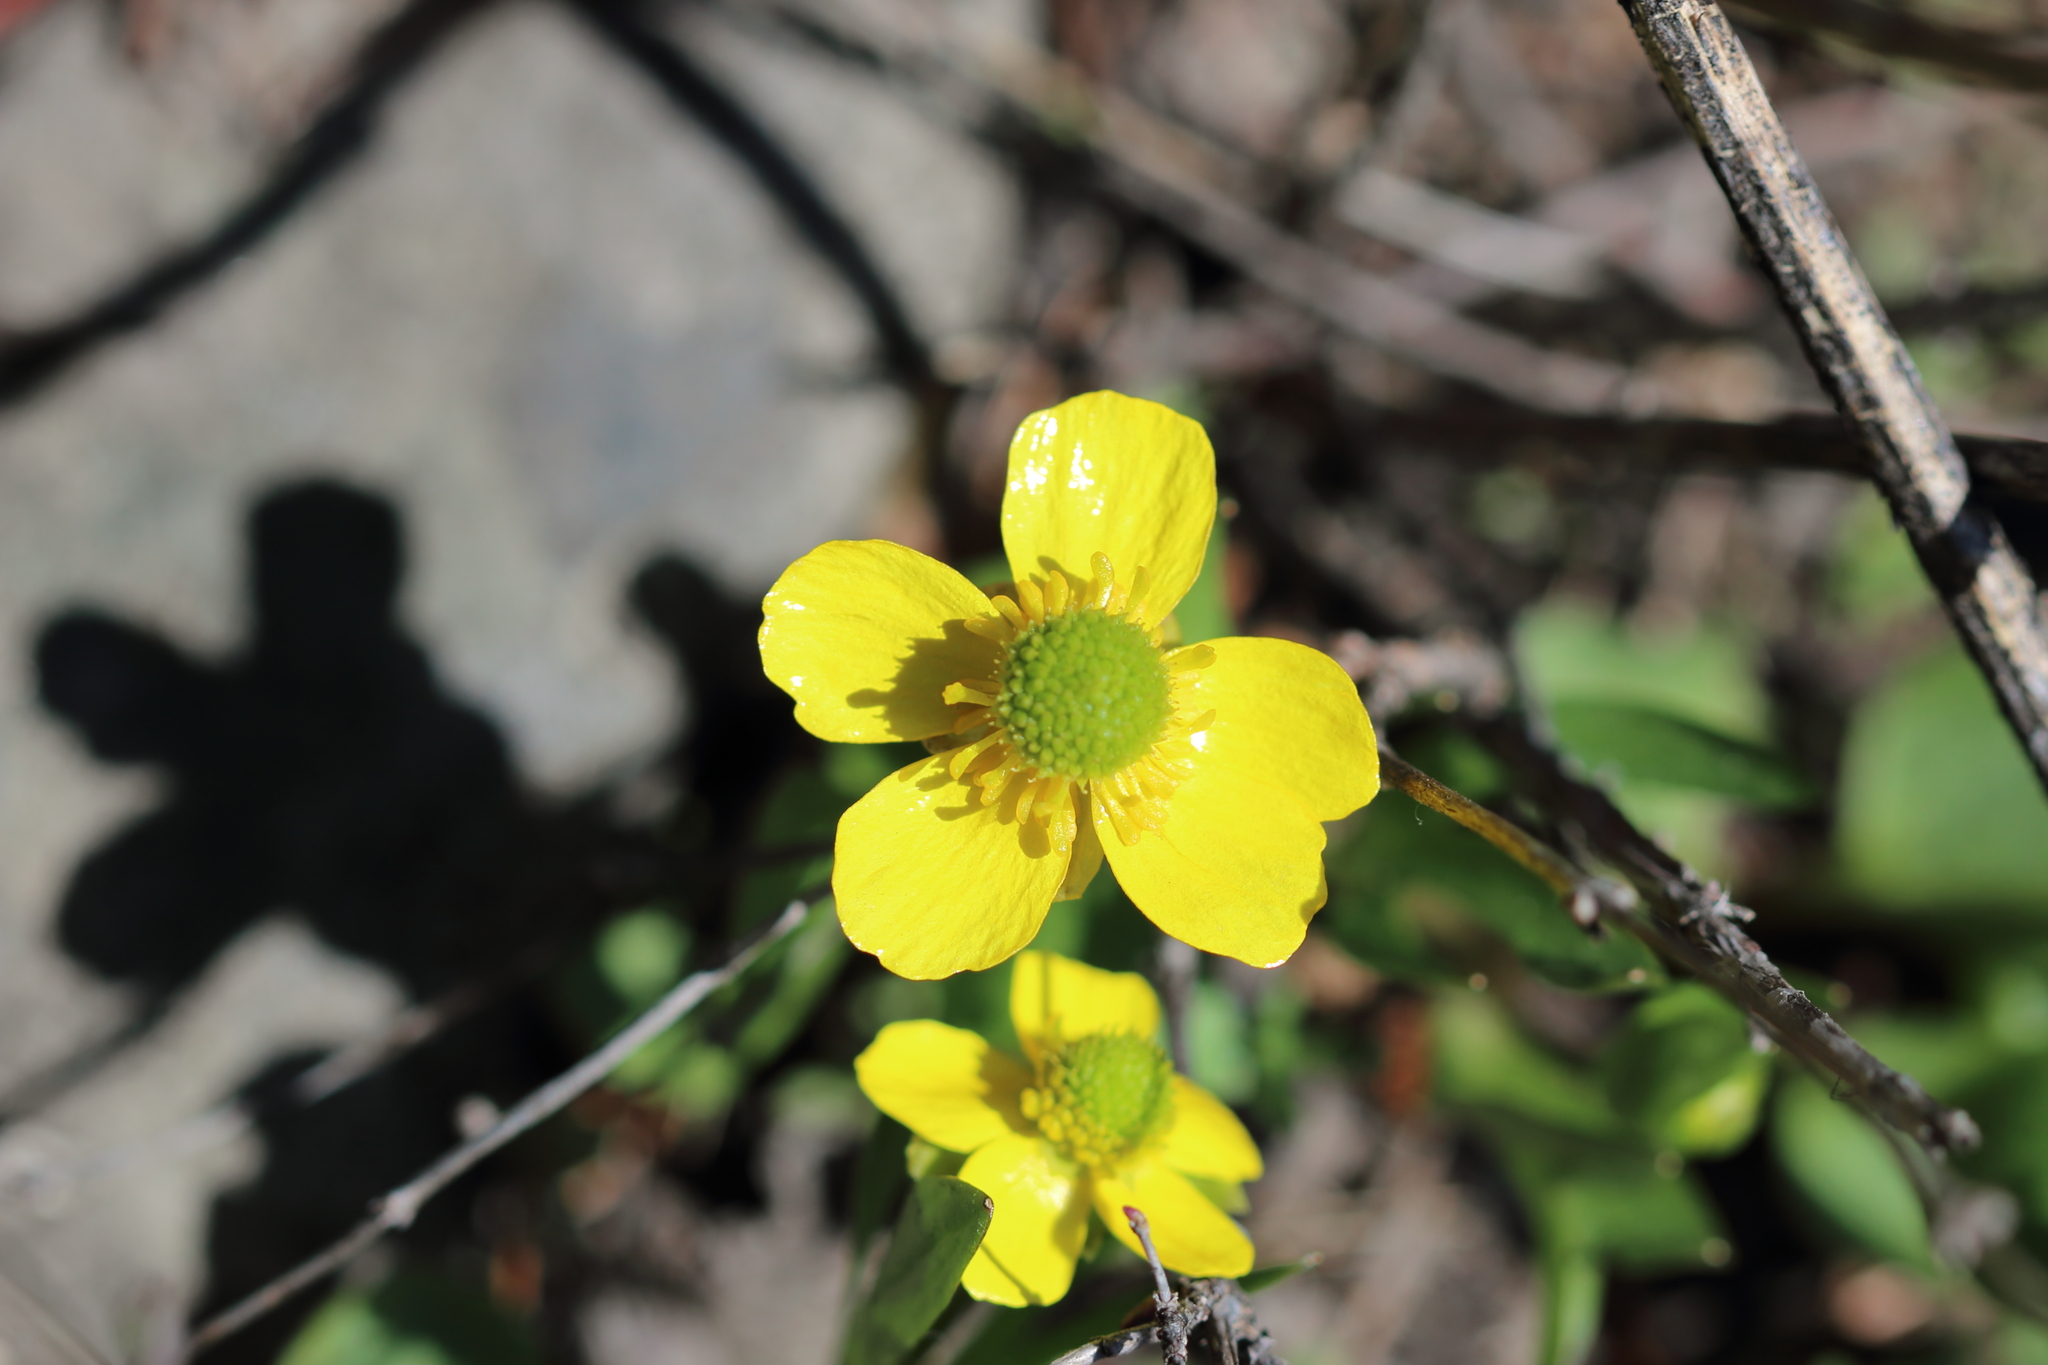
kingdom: Plantae
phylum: Tracheophyta
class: Magnoliopsida
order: Ranunculales
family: Ranunculaceae
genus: Ranunculus
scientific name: Ranunculus glaberrimus
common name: Sagebrush buttercup
